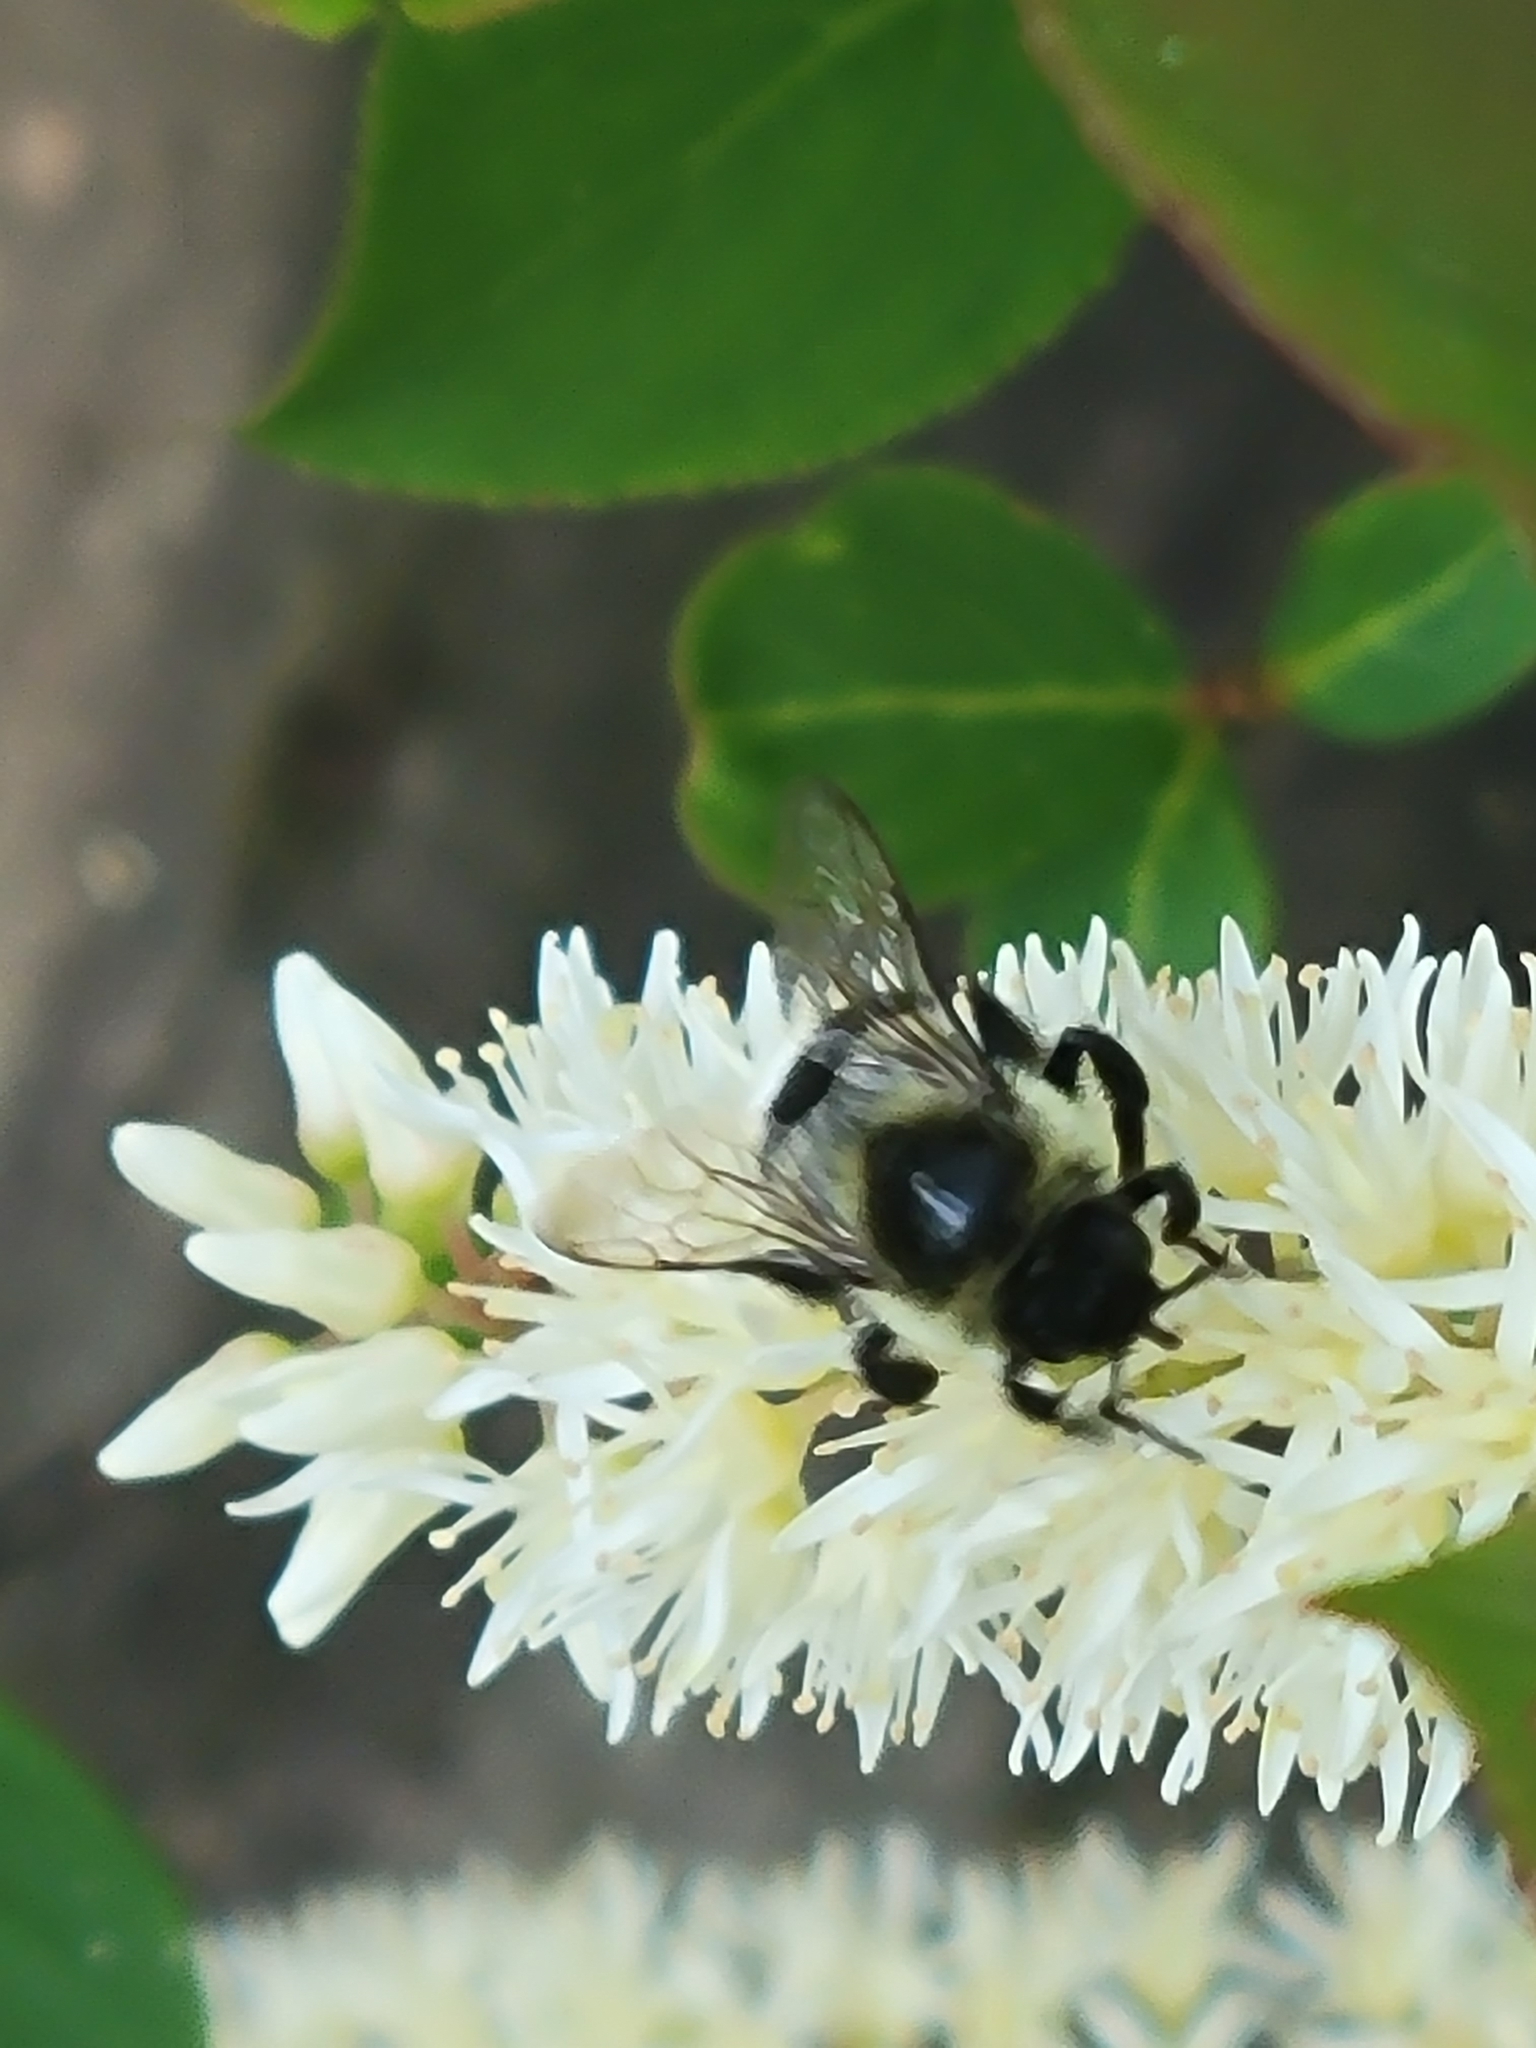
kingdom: Animalia
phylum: Arthropoda
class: Insecta
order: Hymenoptera
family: Apidae
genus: Bombus
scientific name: Bombus impatiens
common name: Common eastern bumble bee
